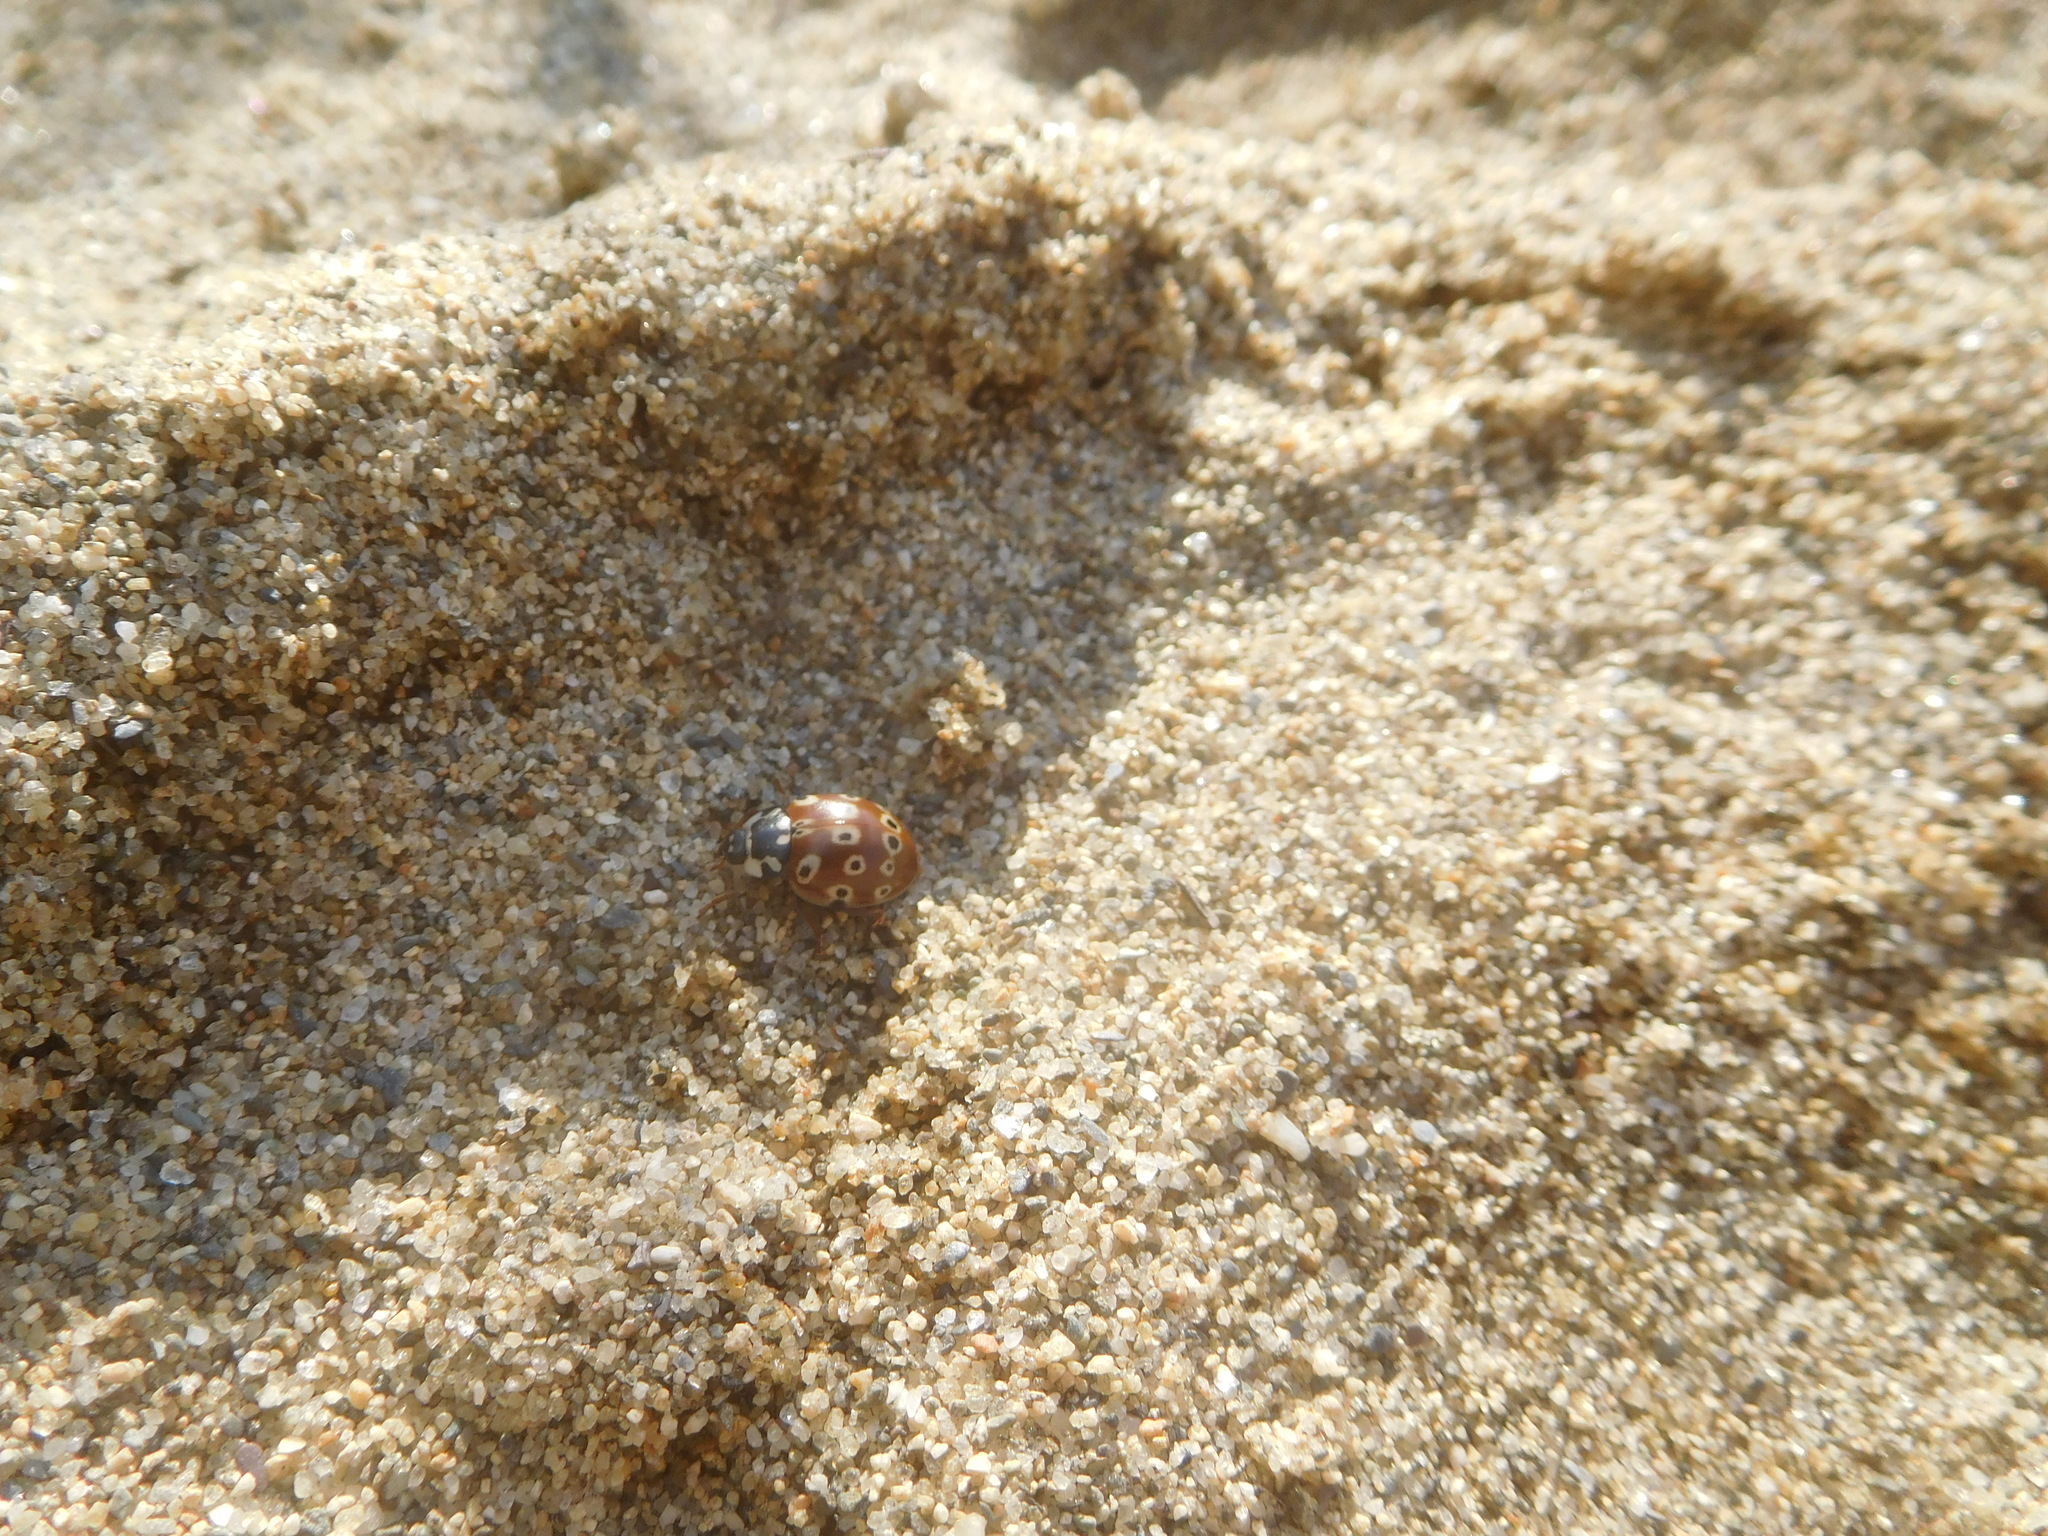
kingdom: Animalia
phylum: Arthropoda
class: Insecta
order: Coleoptera
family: Coccinellidae
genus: Anatis
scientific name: Anatis mali
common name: Eye-spotted lady beetle
